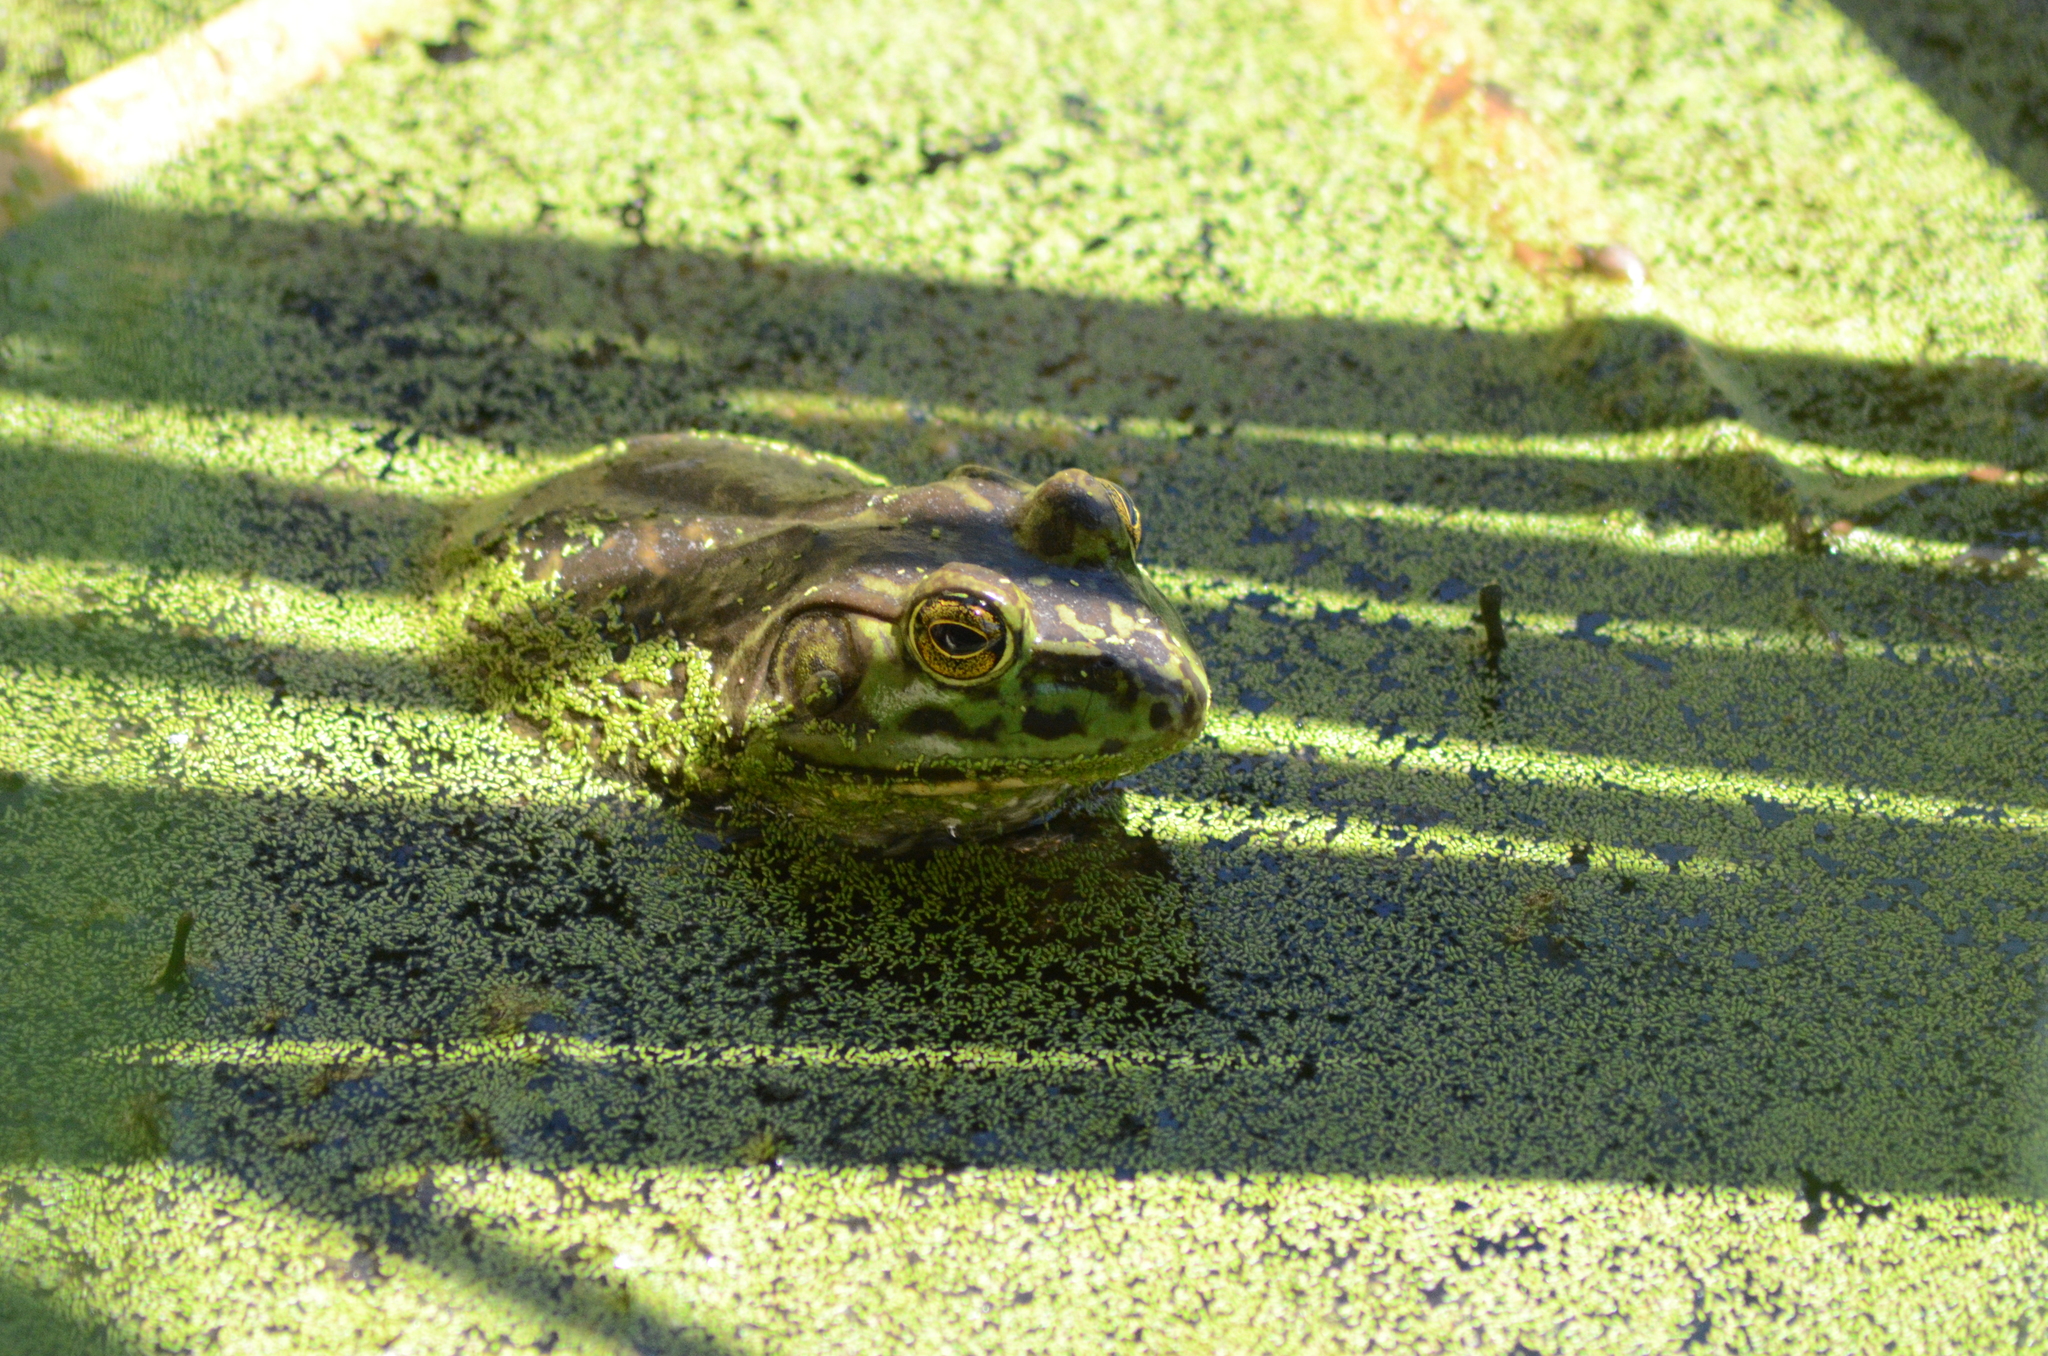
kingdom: Animalia
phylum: Chordata
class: Amphibia
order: Anura
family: Ranidae
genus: Lithobates
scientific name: Lithobates catesbeianus
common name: American bullfrog
